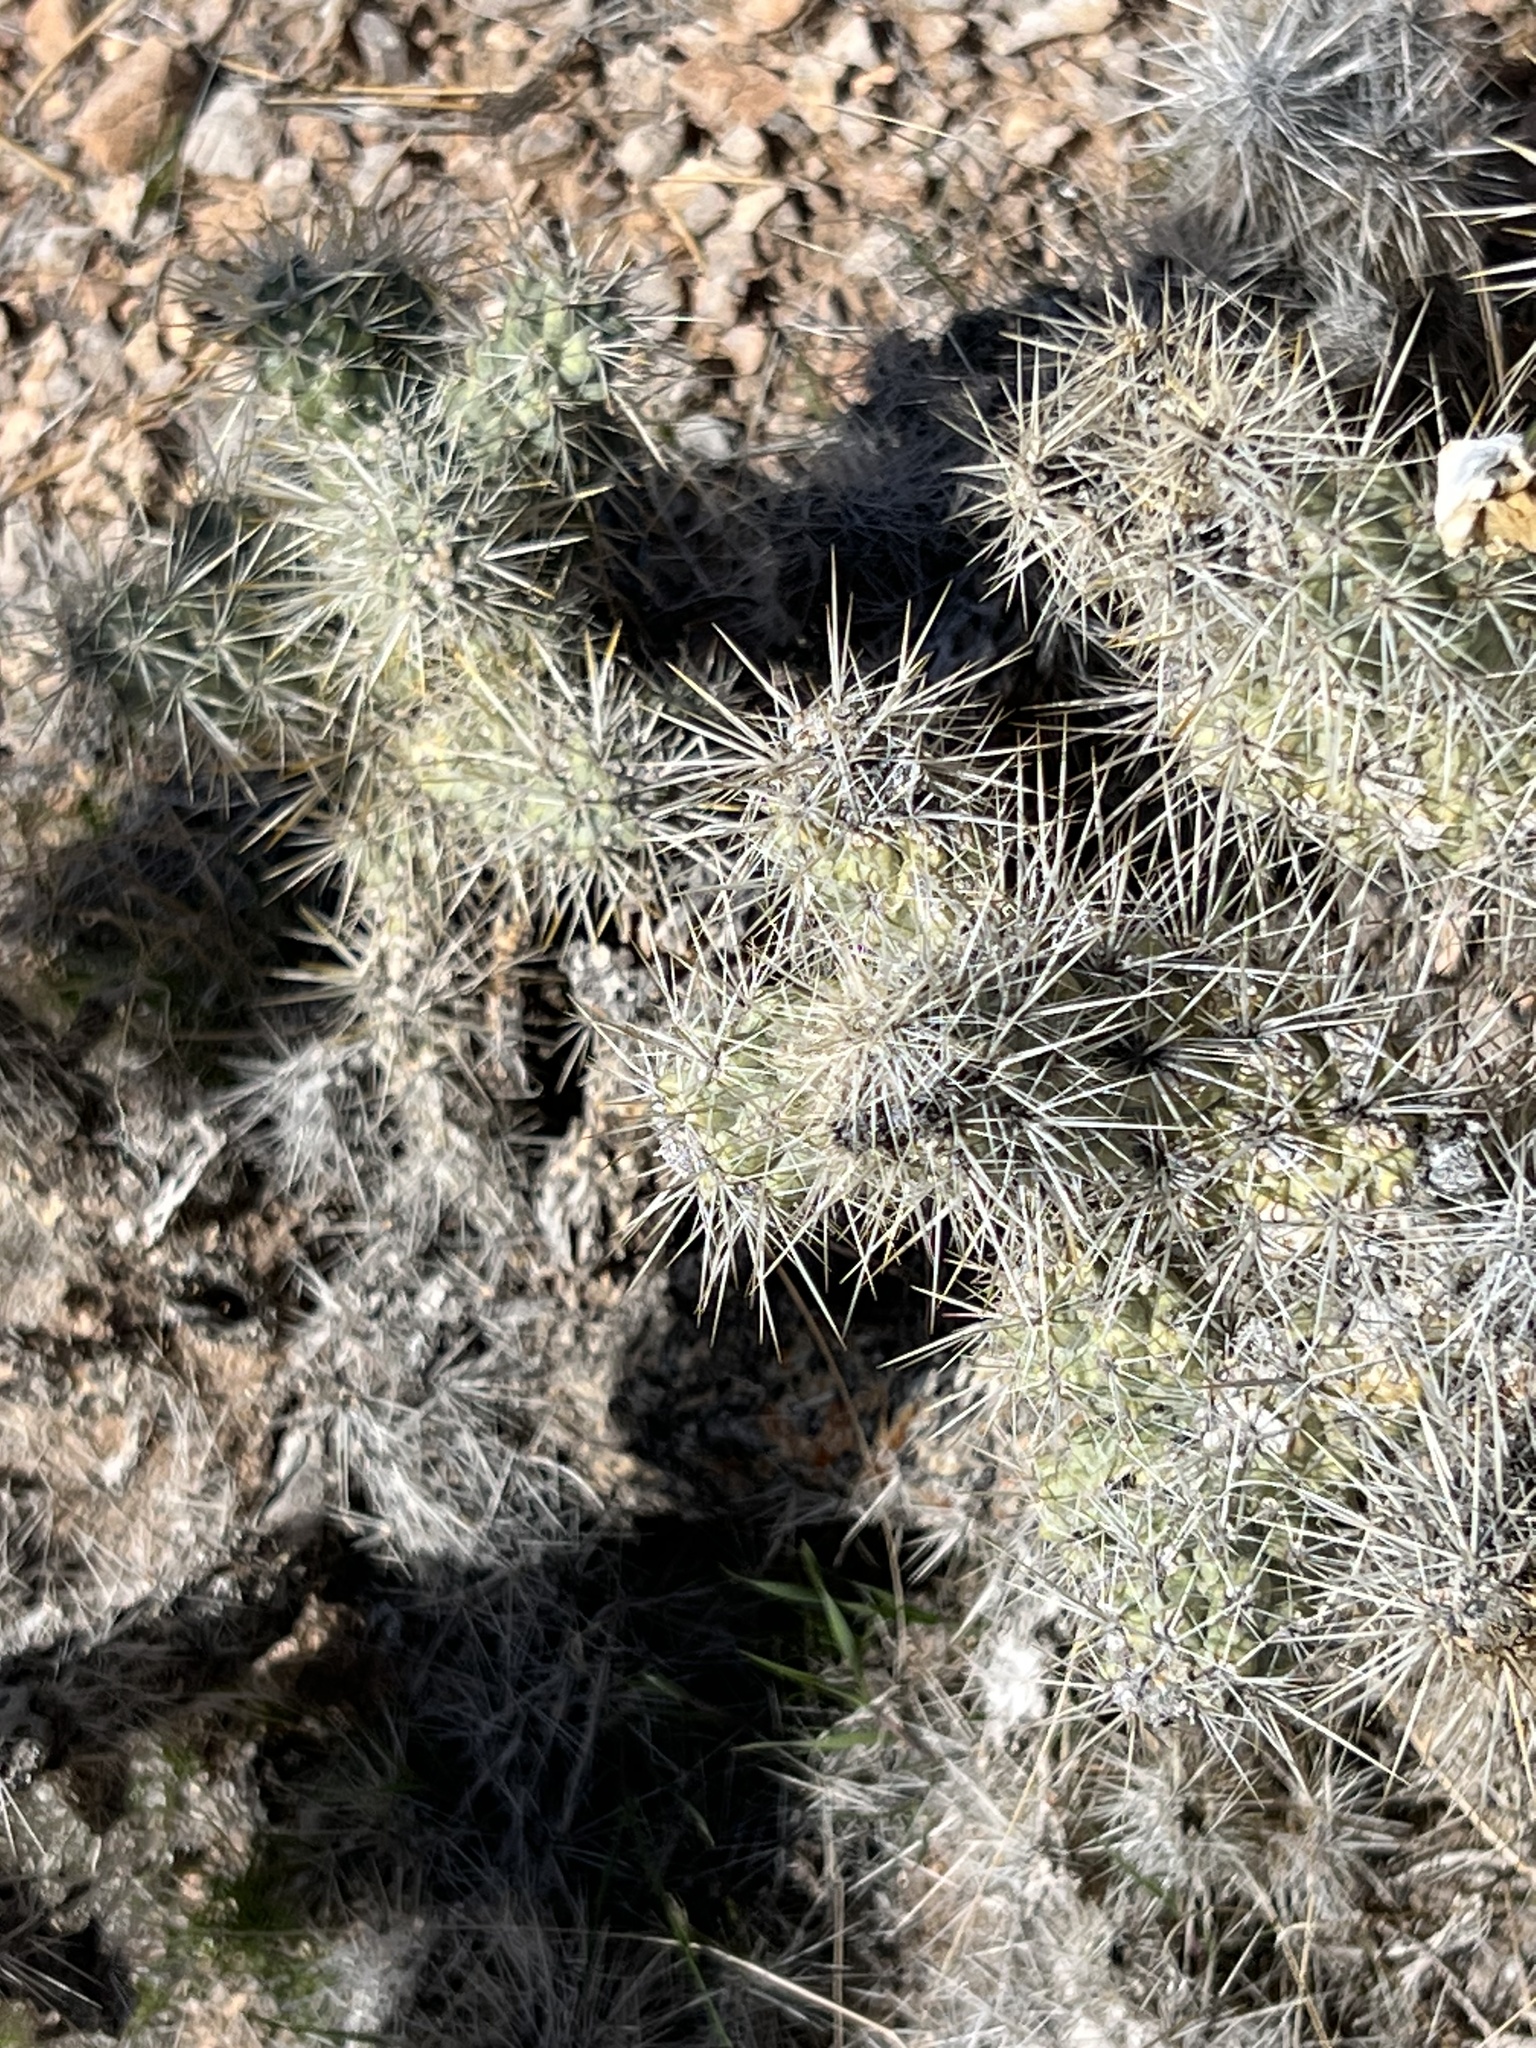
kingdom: Plantae
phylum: Tracheophyta
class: Magnoliopsida
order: Caryophyllales
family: Cactaceae
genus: Cylindropuntia
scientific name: Cylindropuntia echinocarpa
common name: Ground cholla
